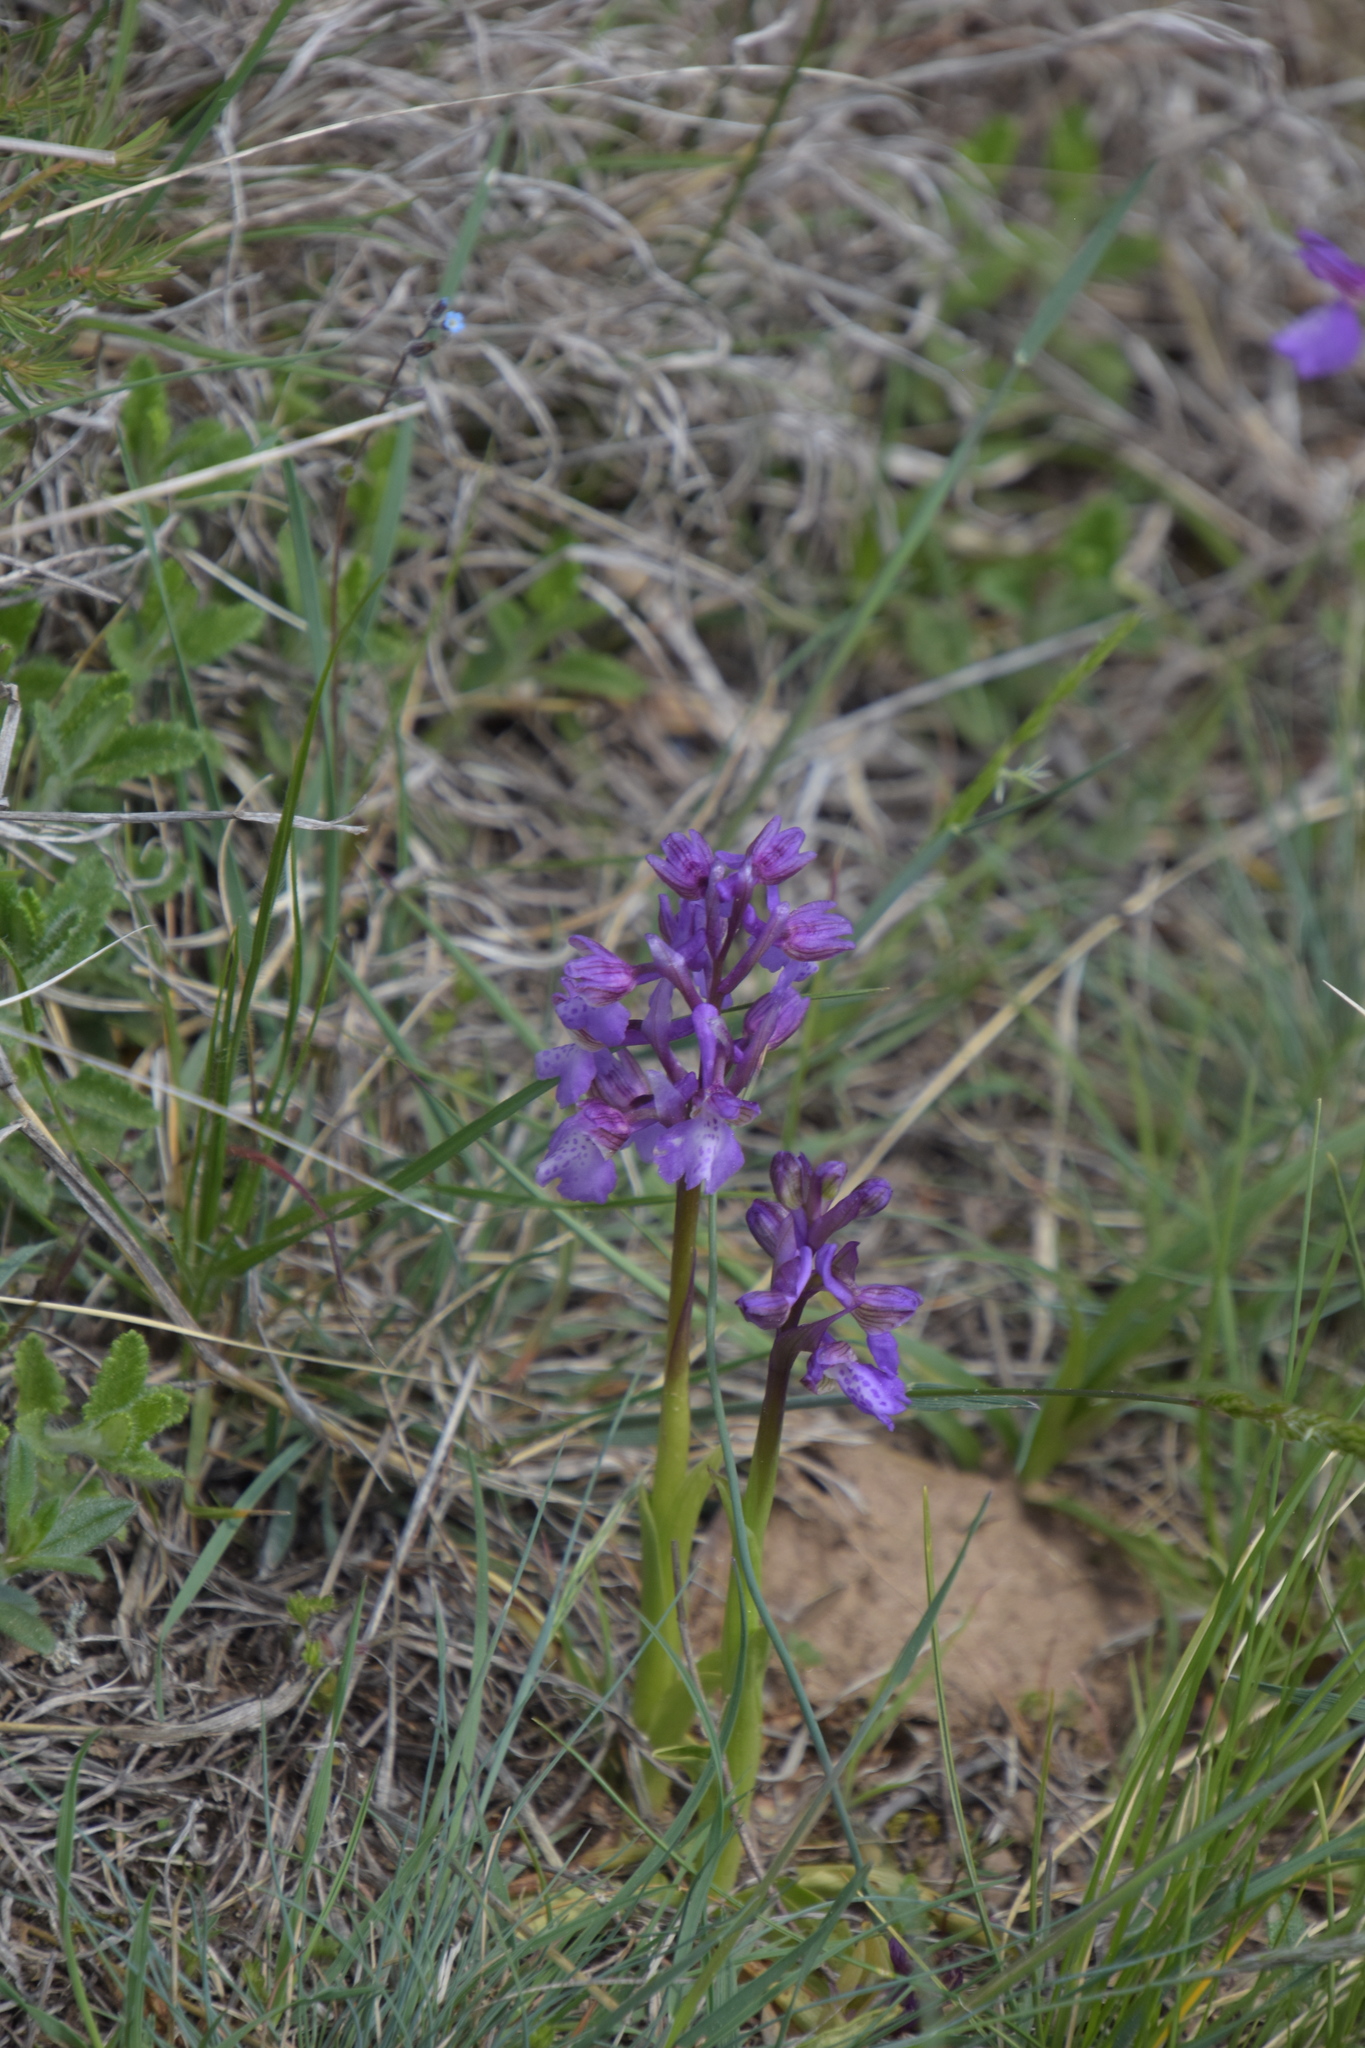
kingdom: Plantae
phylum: Tracheophyta
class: Liliopsida
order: Asparagales
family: Orchidaceae
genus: Anacamptis
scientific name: Anacamptis morio
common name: Green-winged orchid
